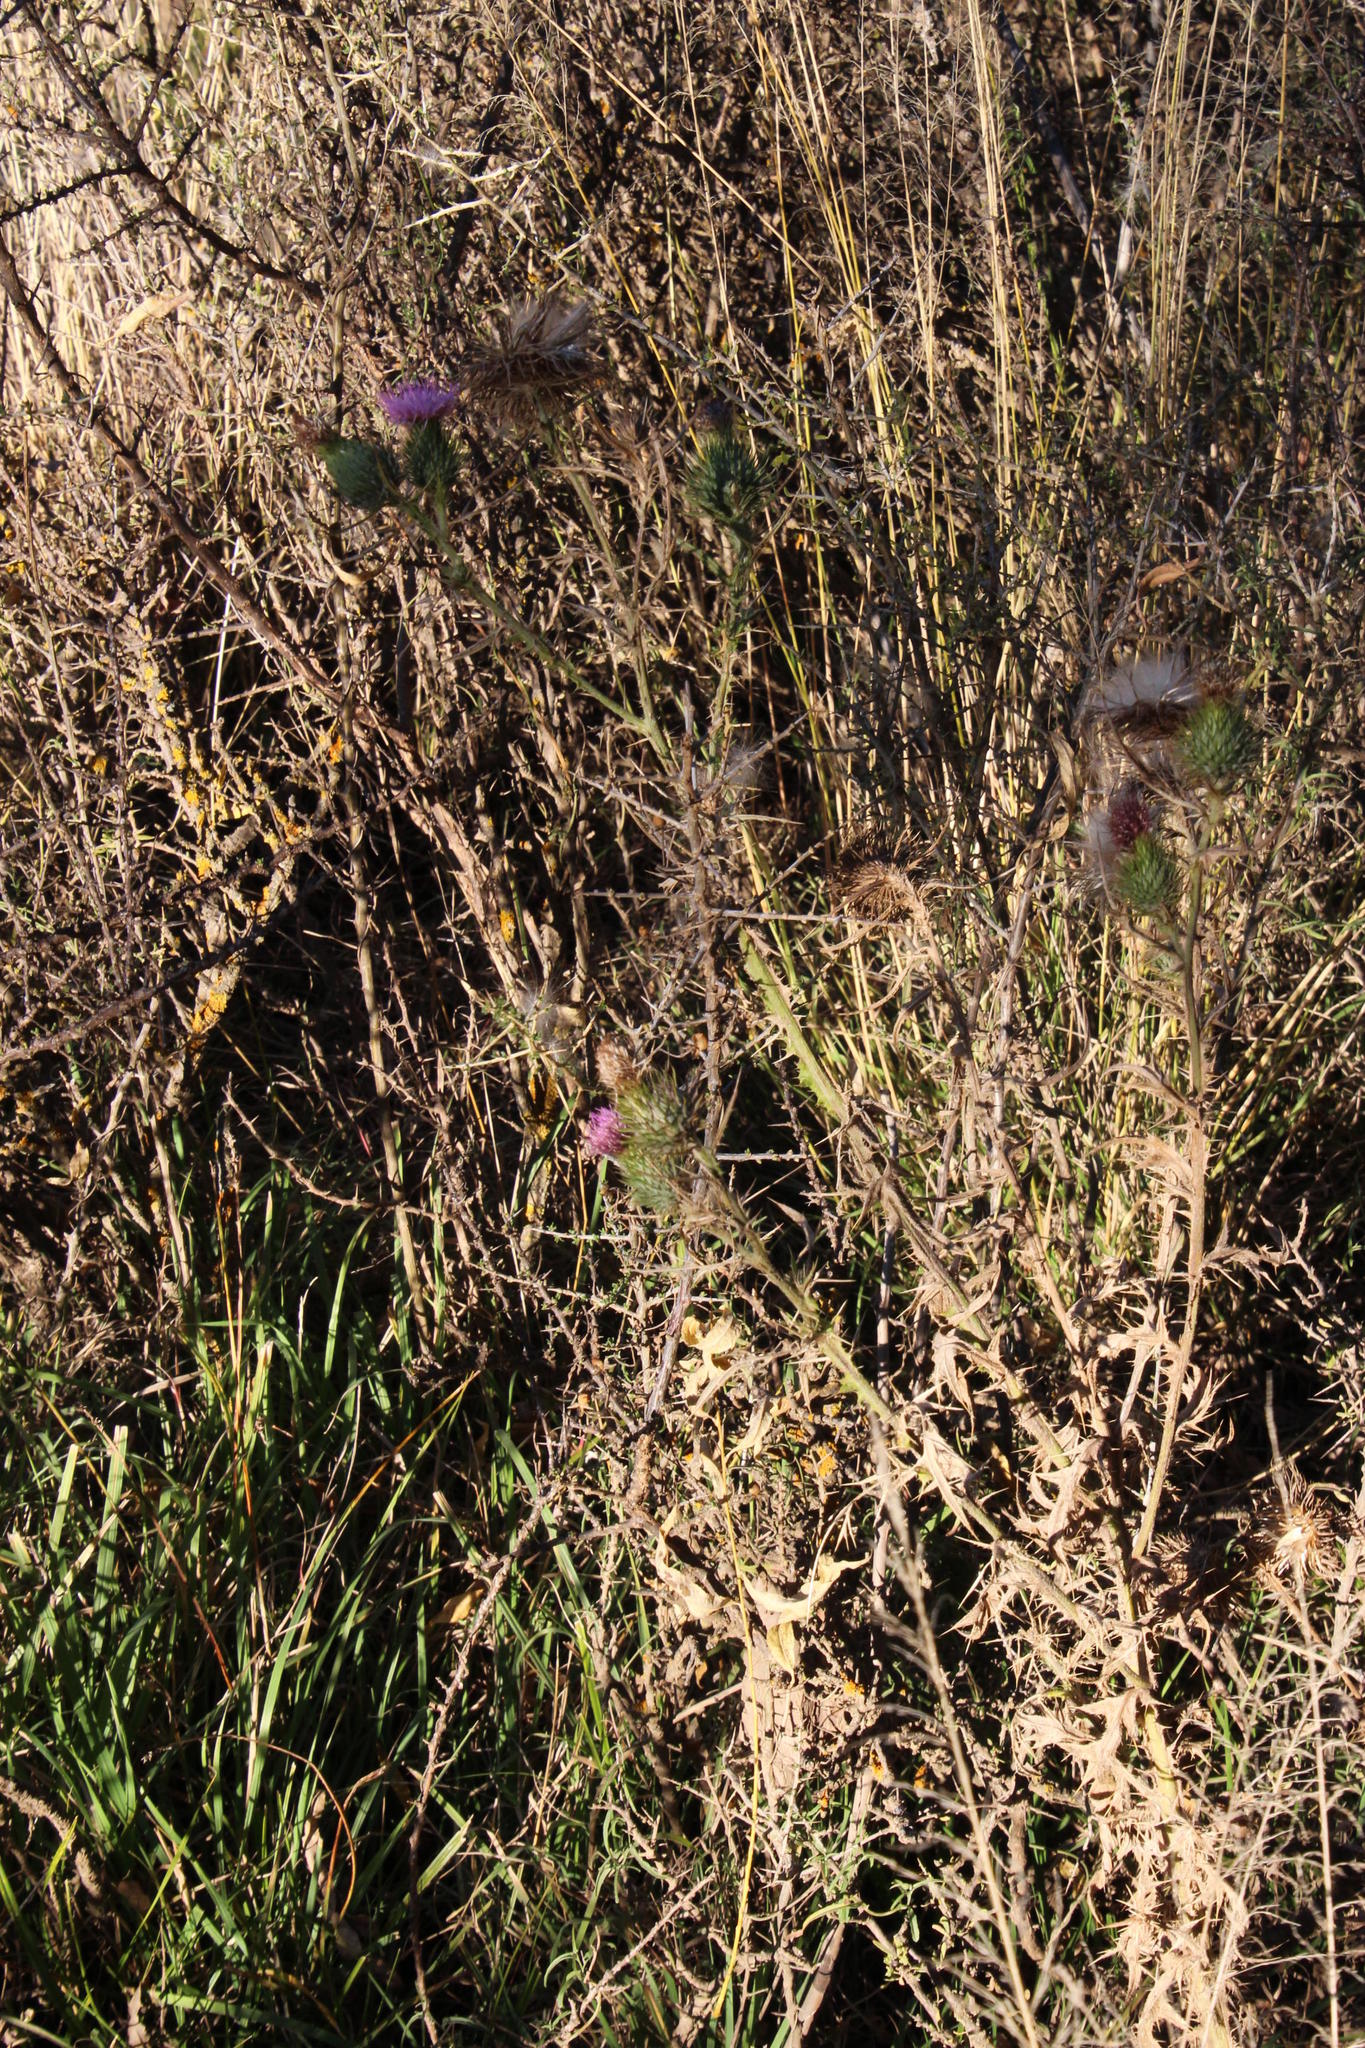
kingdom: Plantae
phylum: Tracheophyta
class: Magnoliopsida
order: Asterales
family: Asteraceae
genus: Cirsium
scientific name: Cirsium vulgare
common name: Bull thistle
